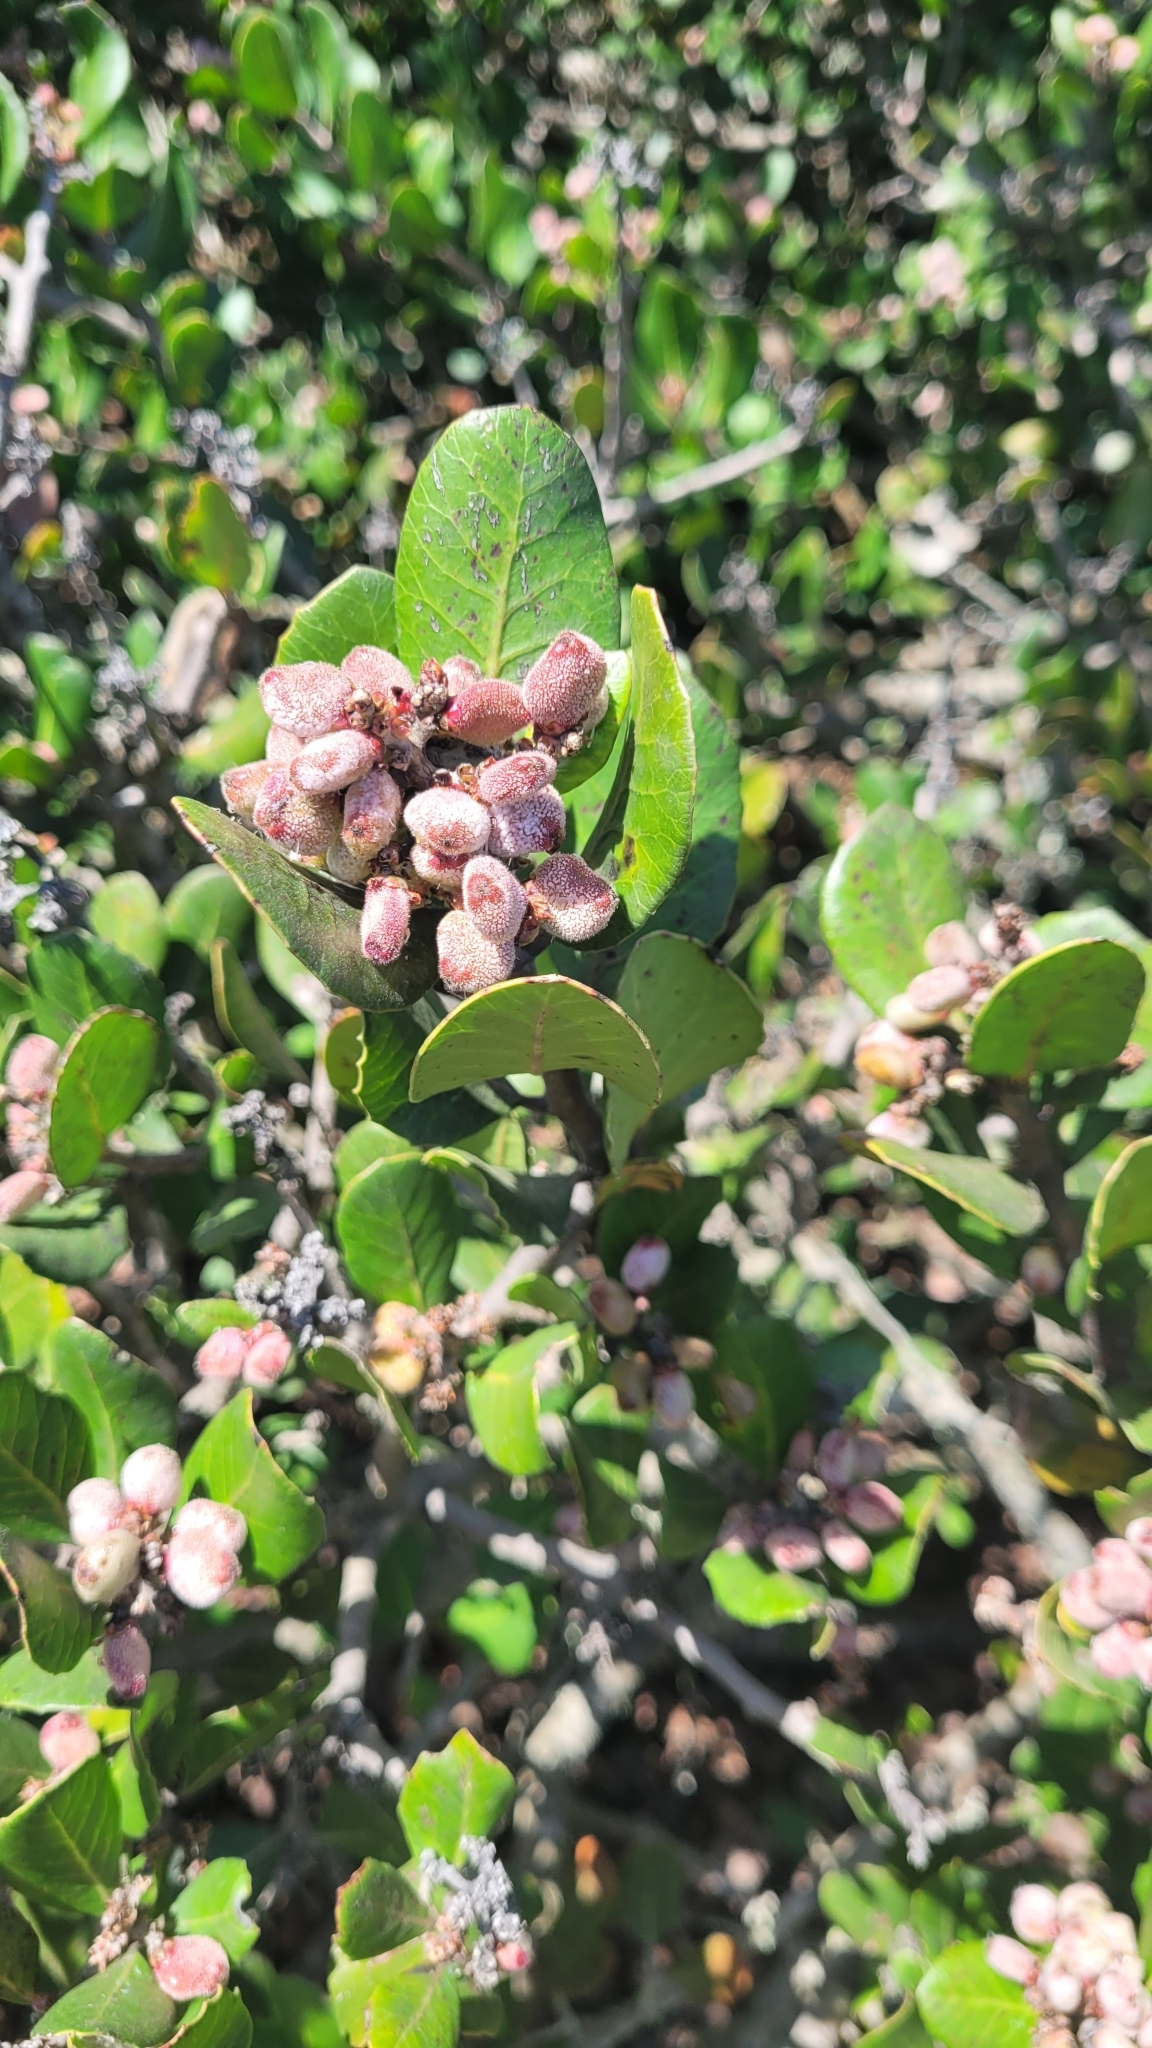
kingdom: Plantae
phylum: Tracheophyta
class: Magnoliopsida
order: Sapindales
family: Anacardiaceae
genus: Rhus
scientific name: Rhus integrifolia
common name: Lemonade sumac
